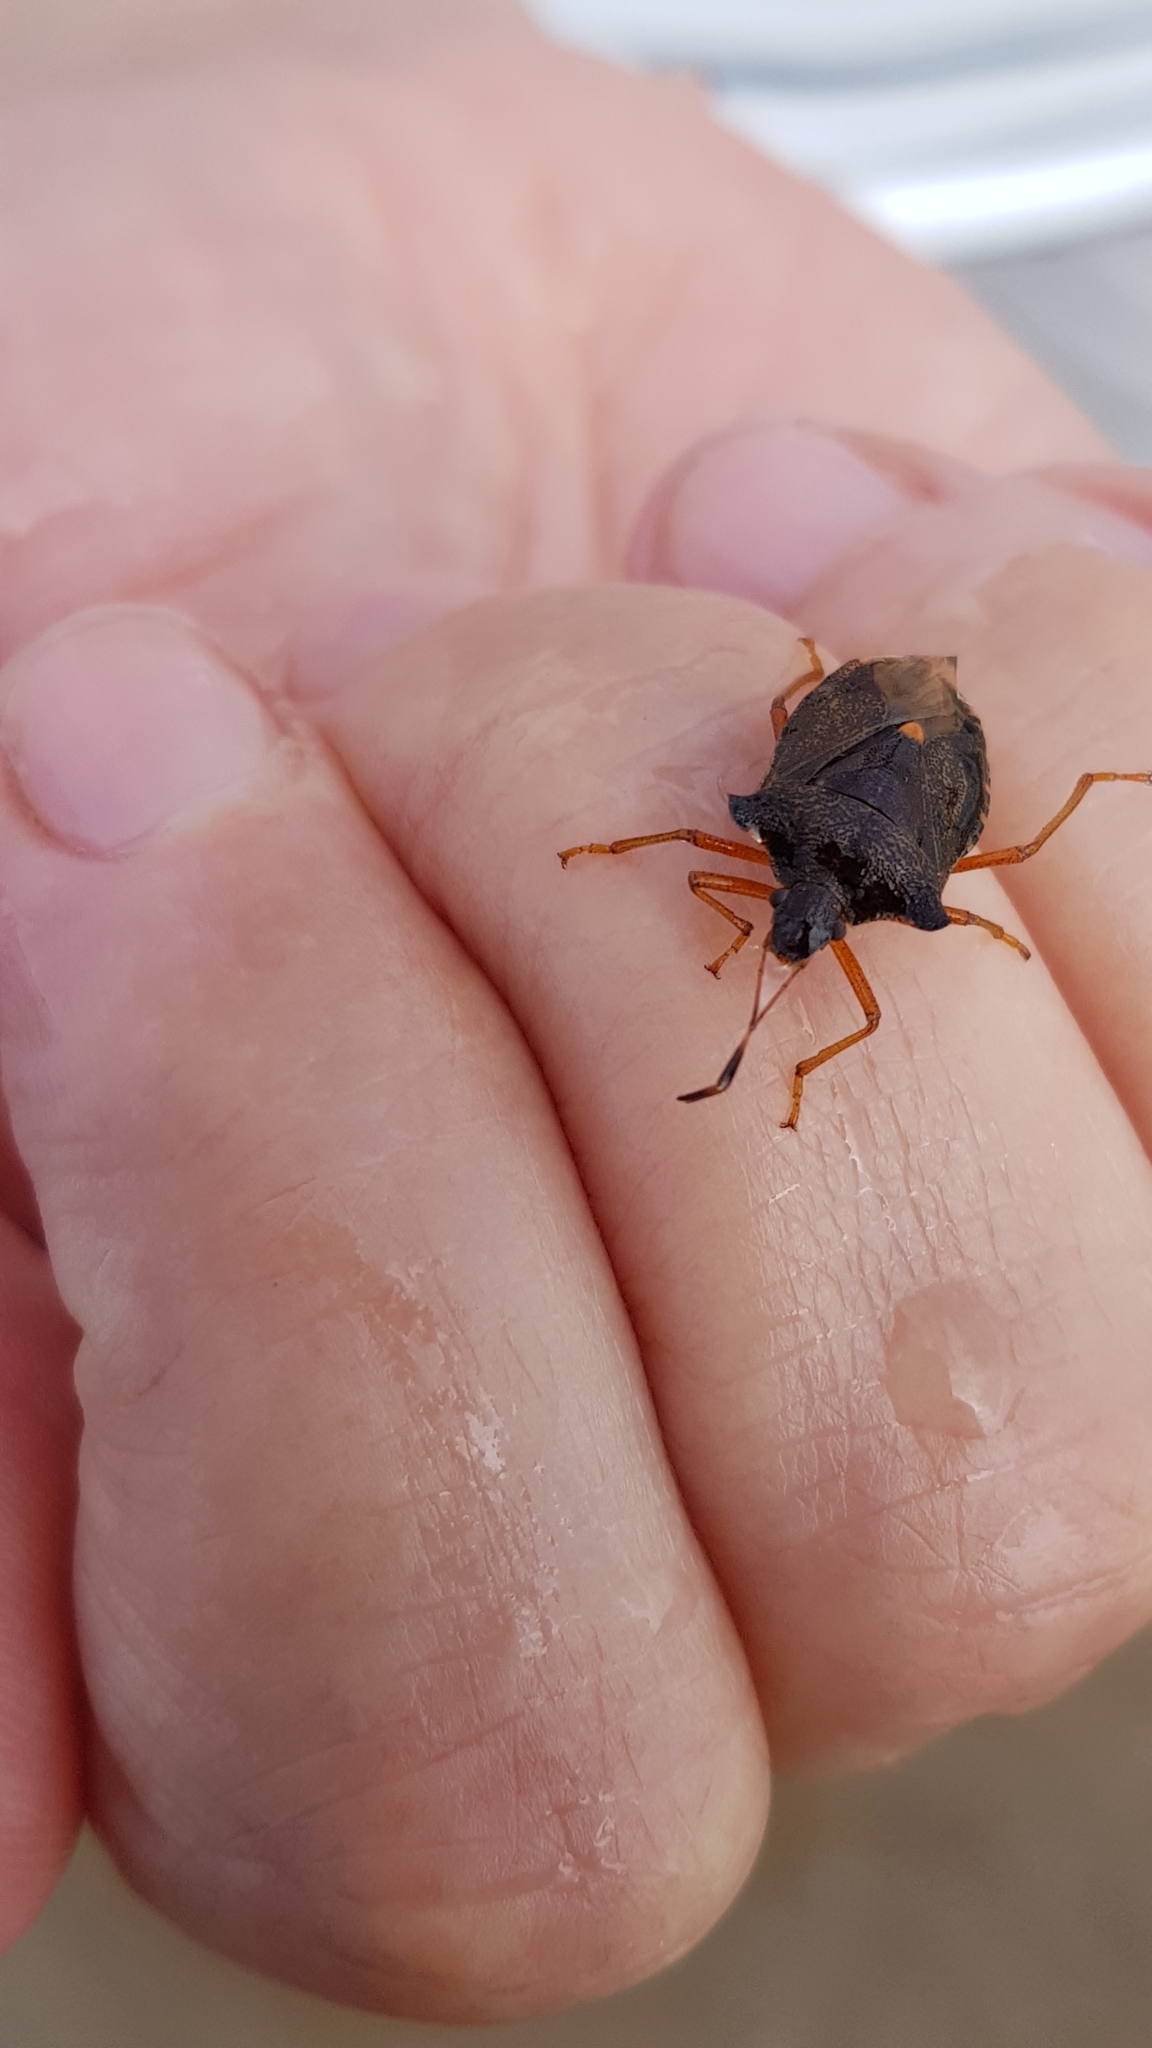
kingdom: Animalia
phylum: Arthropoda
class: Insecta
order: Hemiptera
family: Pentatomidae
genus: Pentatoma
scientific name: Pentatoma rufipes
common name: Forest bug
